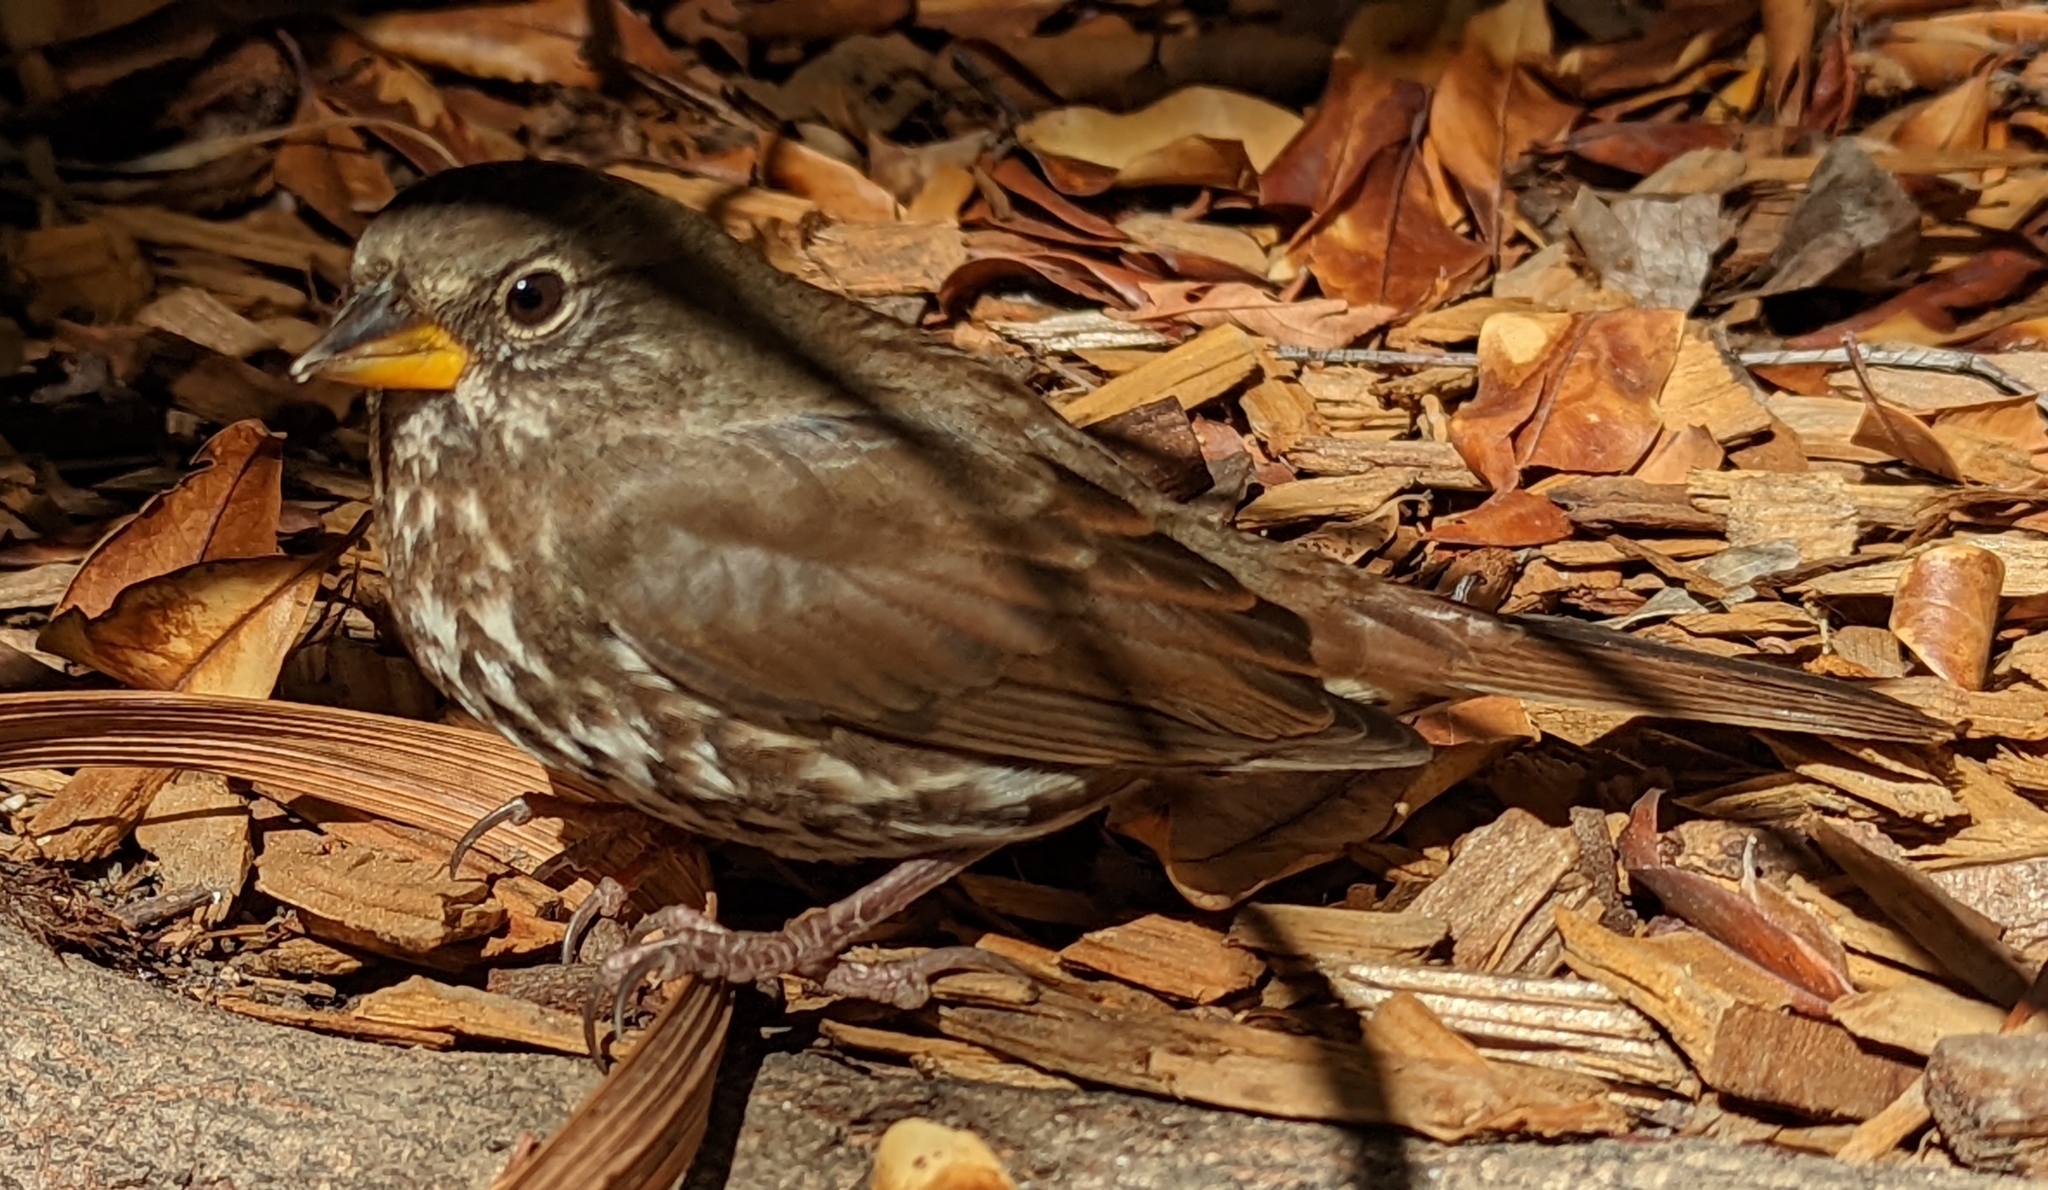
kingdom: Animalia
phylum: Chordata
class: Aves
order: Passeriformes
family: Passerellidae
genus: Passerella
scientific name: Passerella iliaca
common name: Fox sparrow
